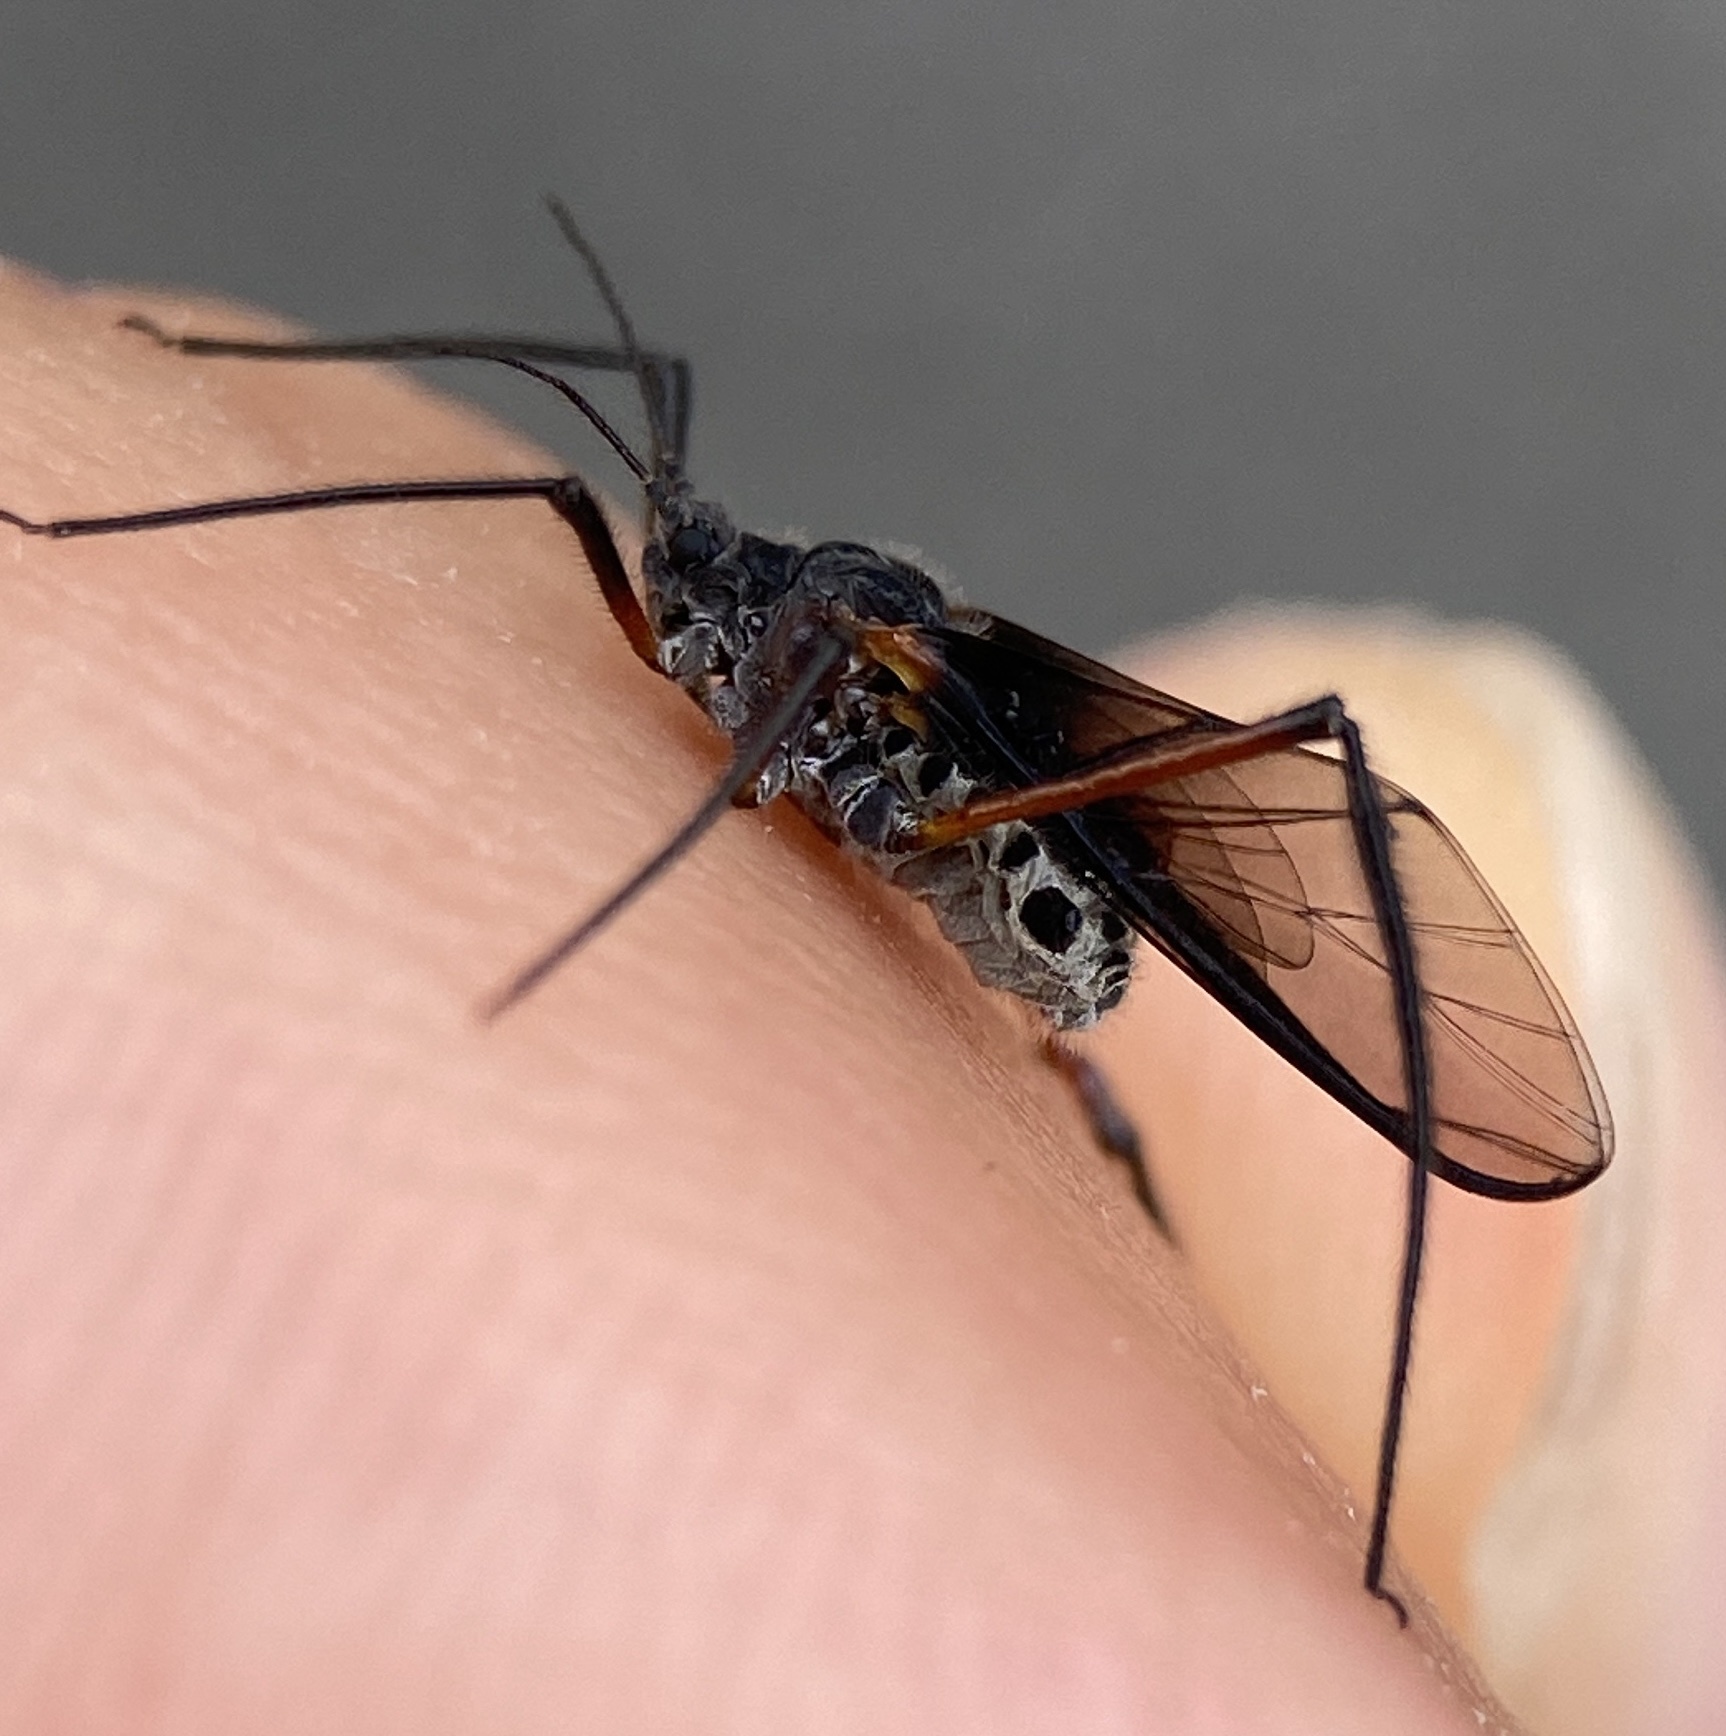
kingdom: Animalia
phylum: Arthropoda
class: Insecta
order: Hemiptera
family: Aphididae
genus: Longistigma
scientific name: Longistigma caryae
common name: Giant bark aphid
